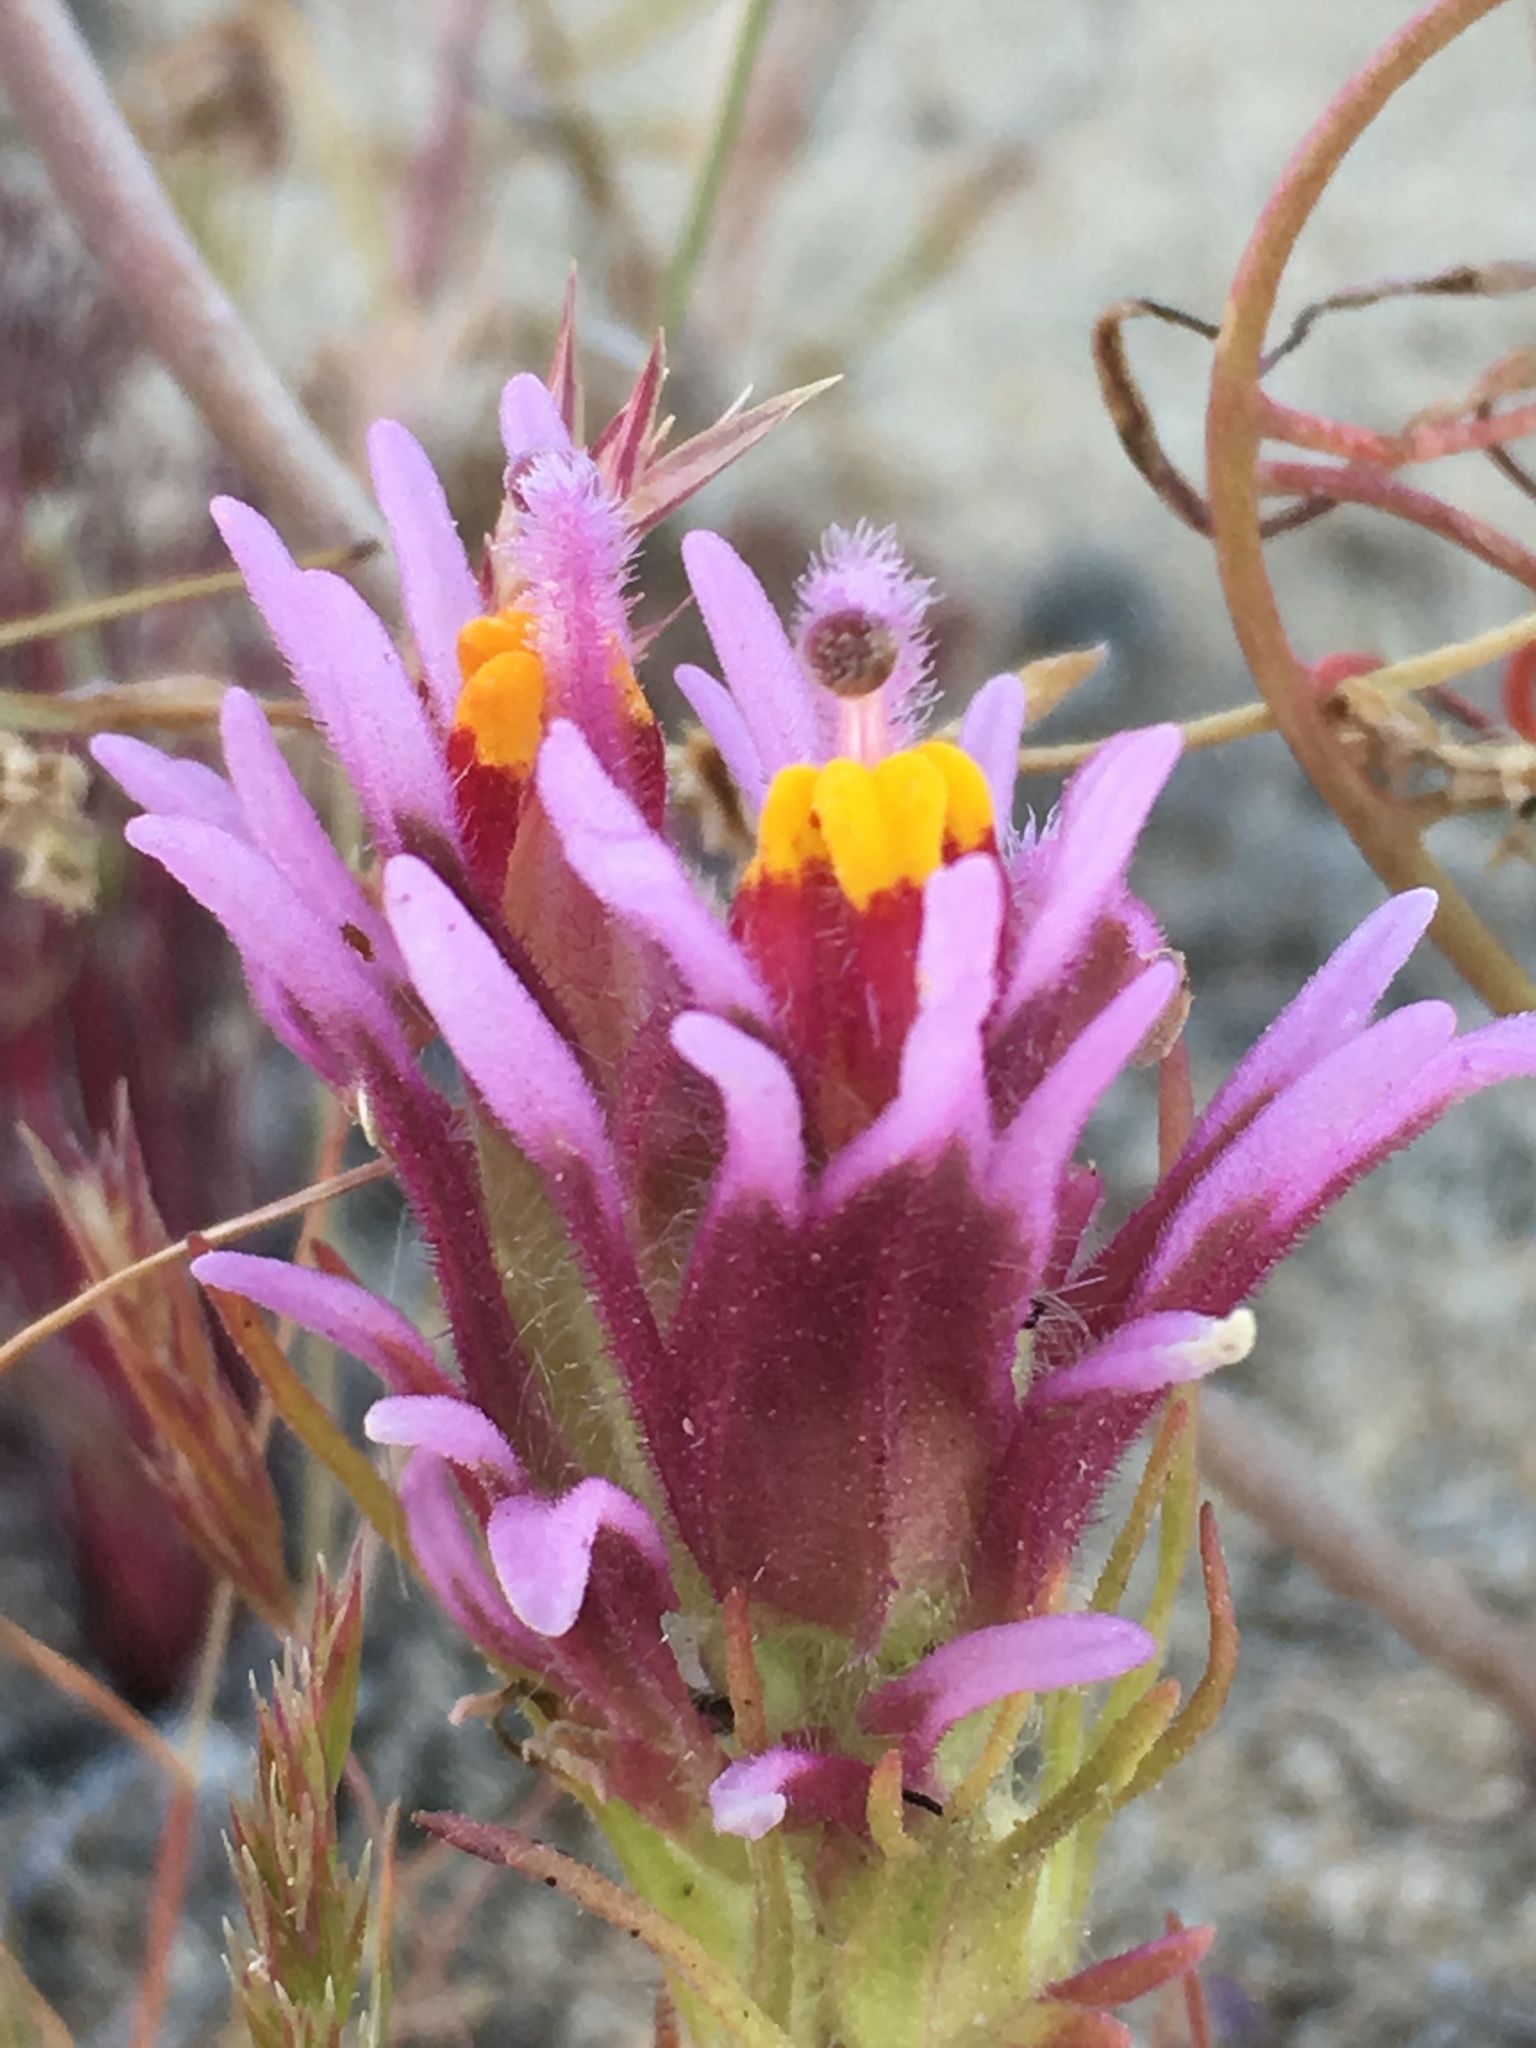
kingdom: Plantae
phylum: Tracheophyta
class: Magnoliopsida
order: Lamiales
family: Orobanchaceae
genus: Castilleja
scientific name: Castilleja exserta
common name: Purple owl-clover
